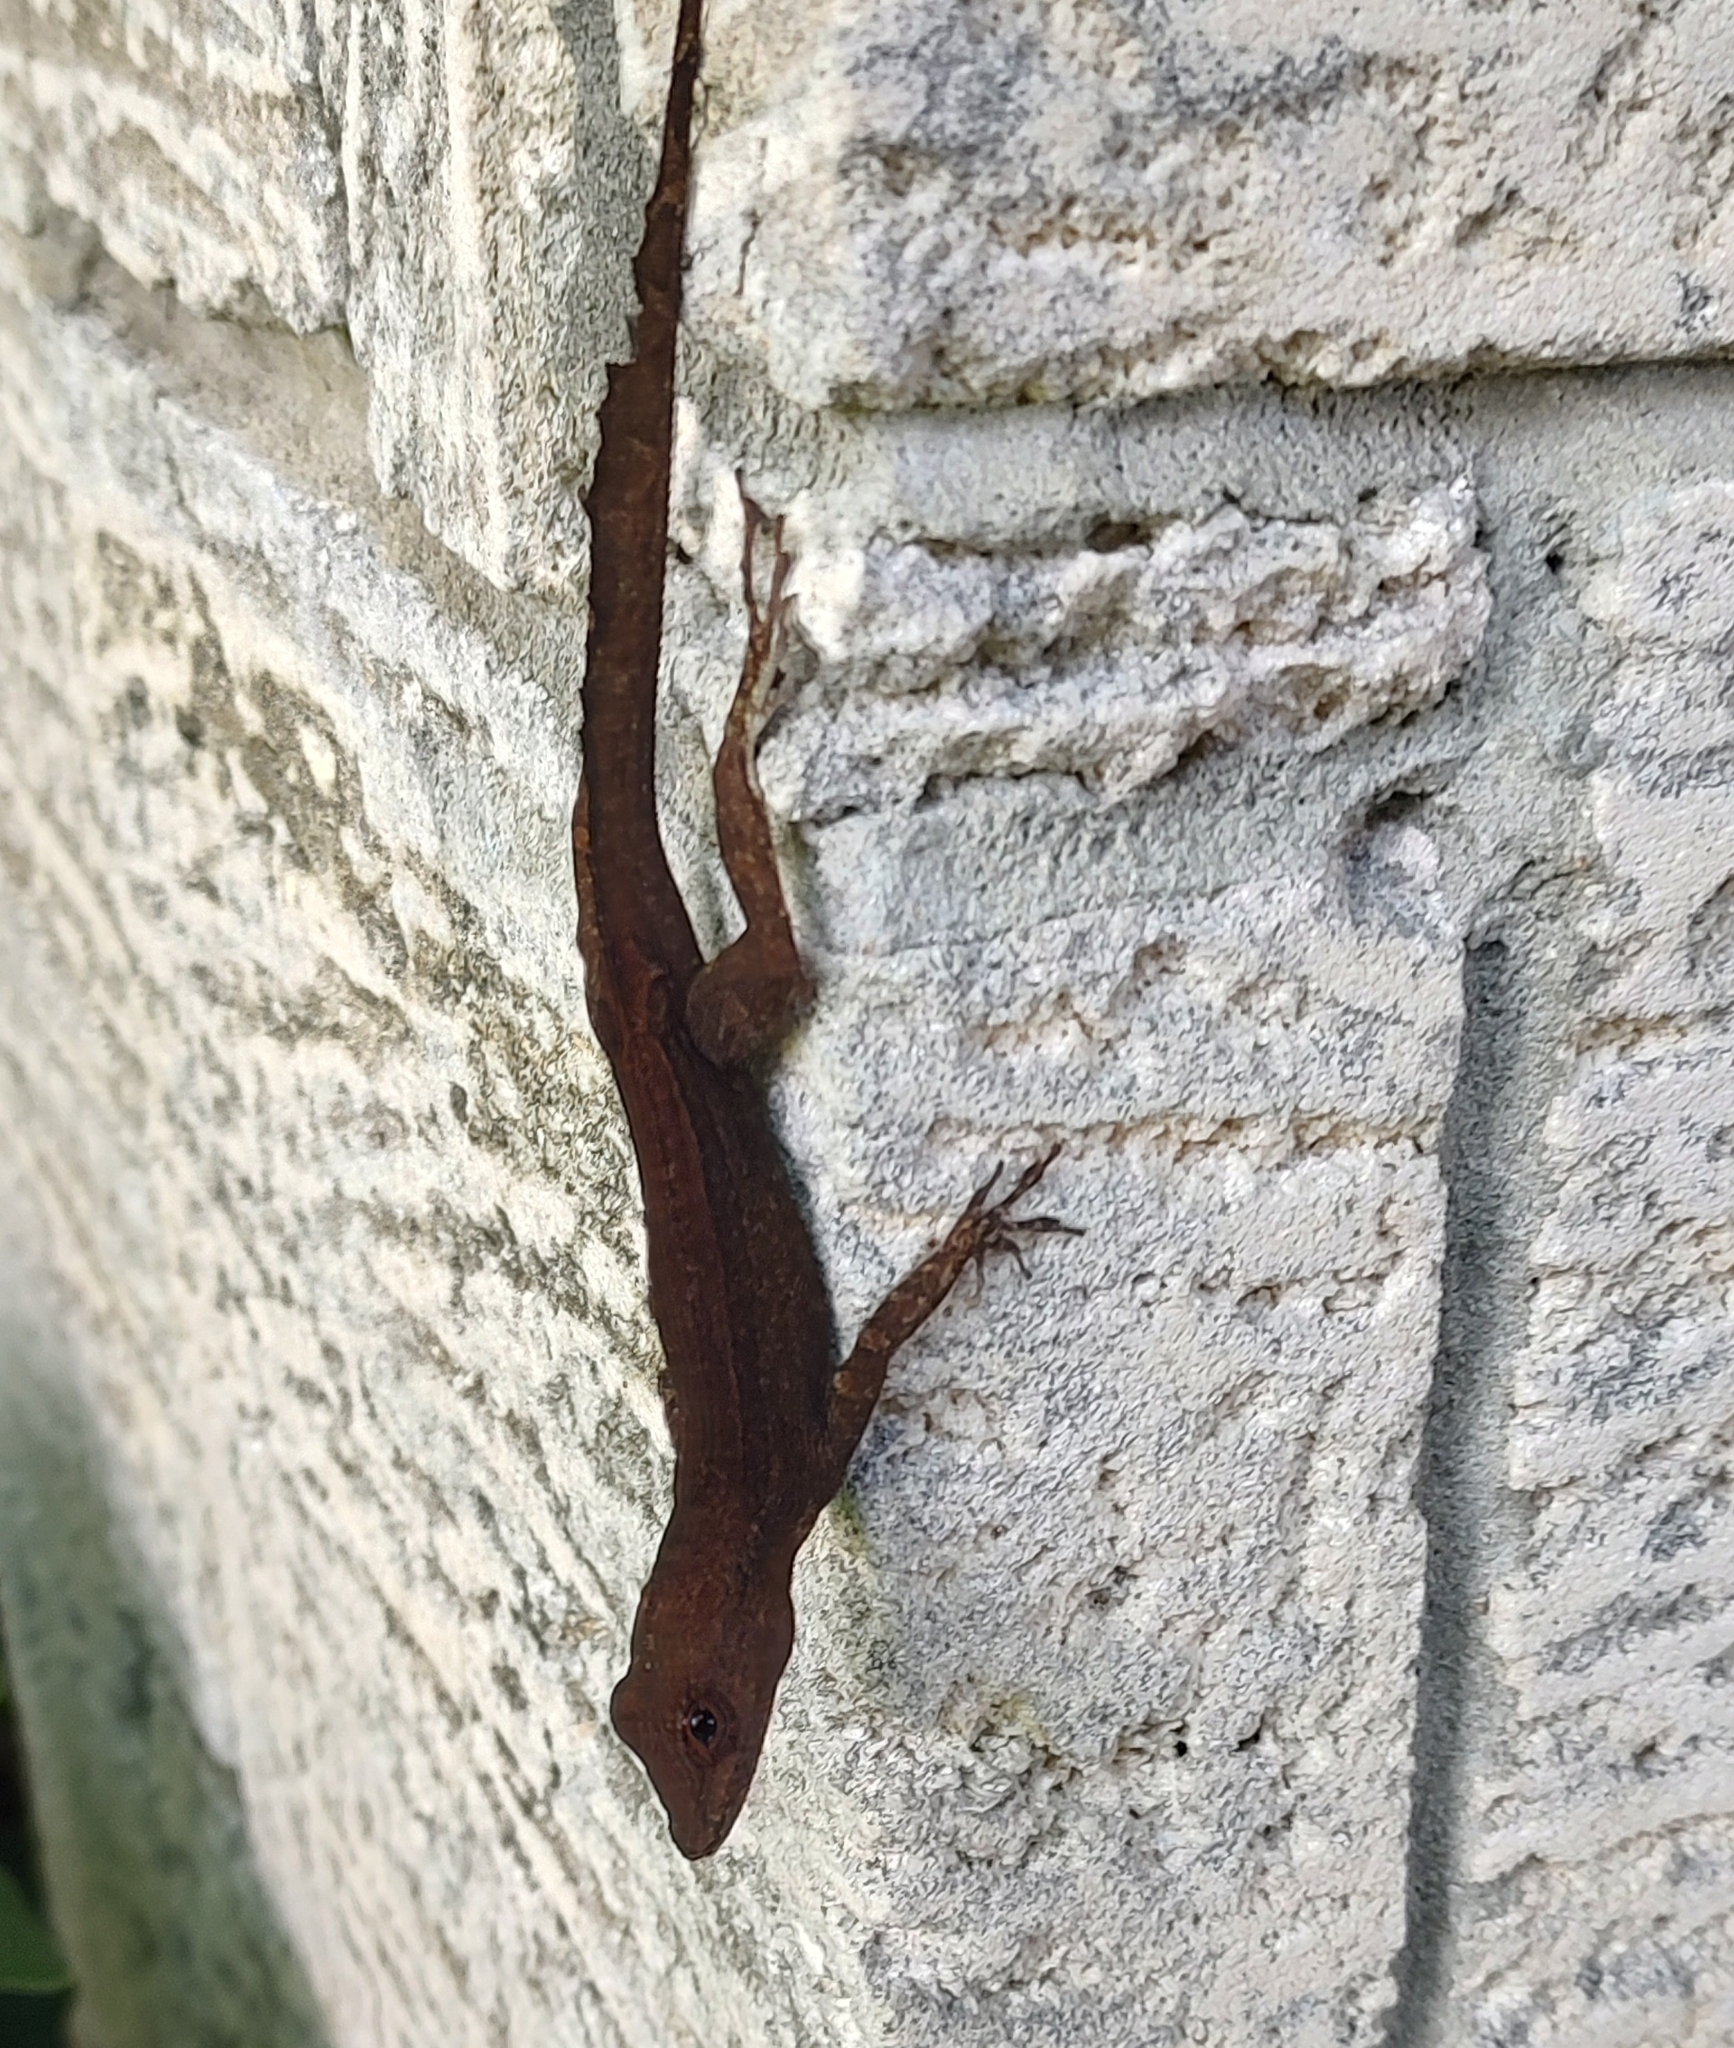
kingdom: Animalia
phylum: Chordata
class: Squamata
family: Dactyloidae
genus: Anolis
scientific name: Anolis cristatellus
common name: Crested anole
